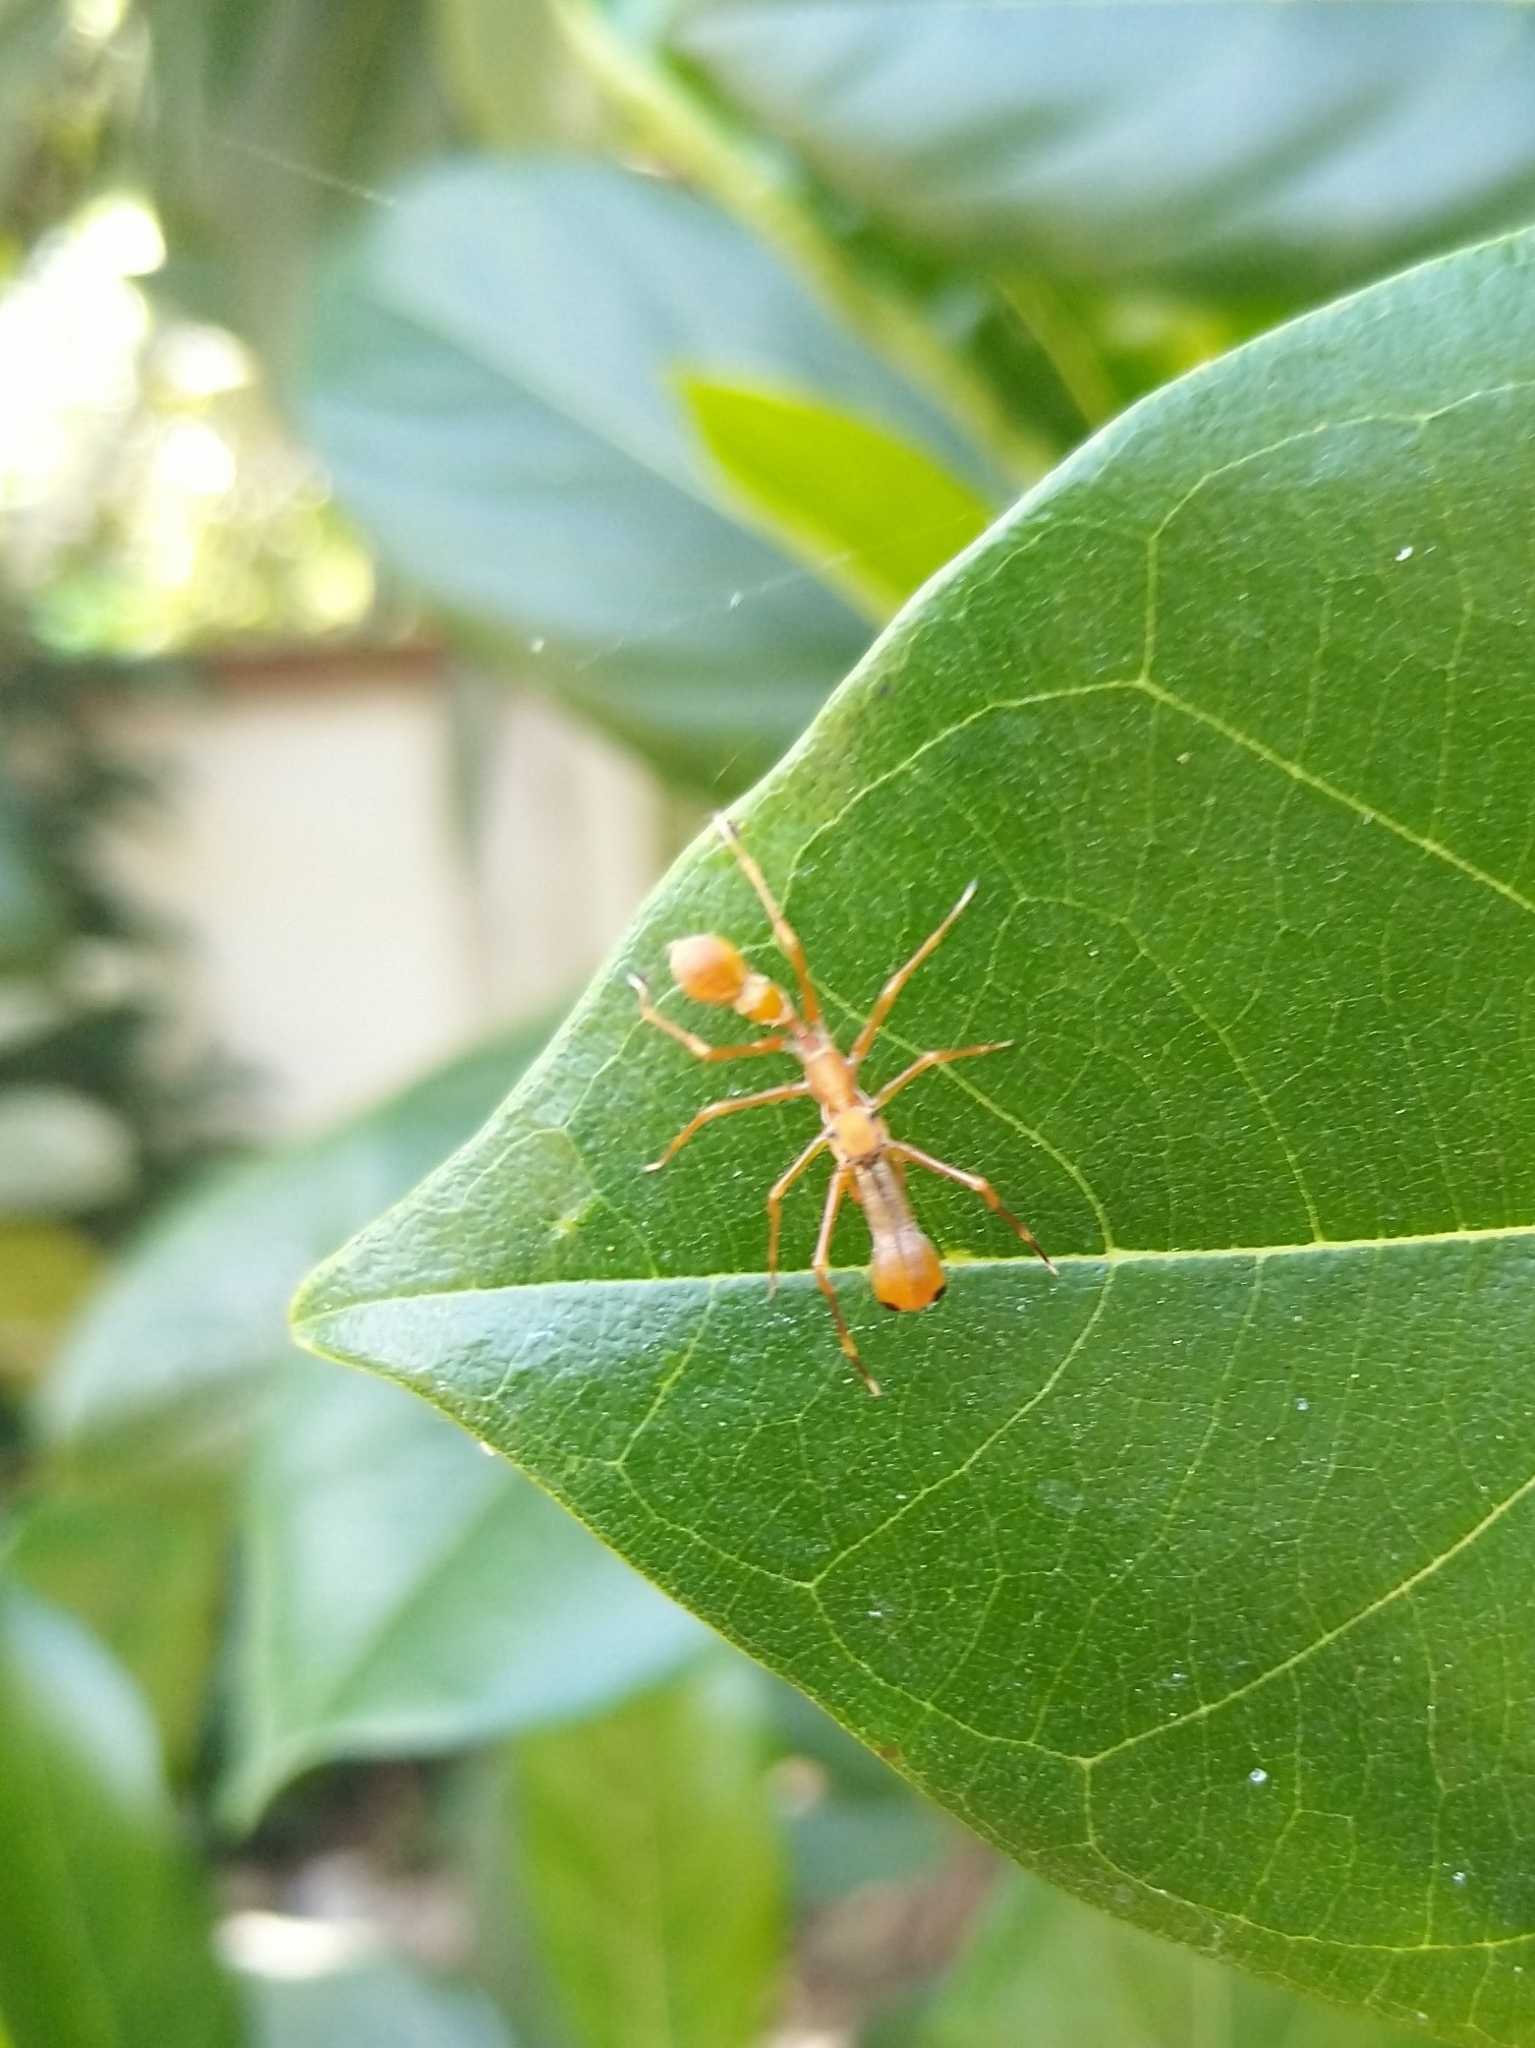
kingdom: Animalia
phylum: Arthropoda
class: Arachnida
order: Araneae
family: Salticidae
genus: Myrmaplata
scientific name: Myrmaplata plataleoides
